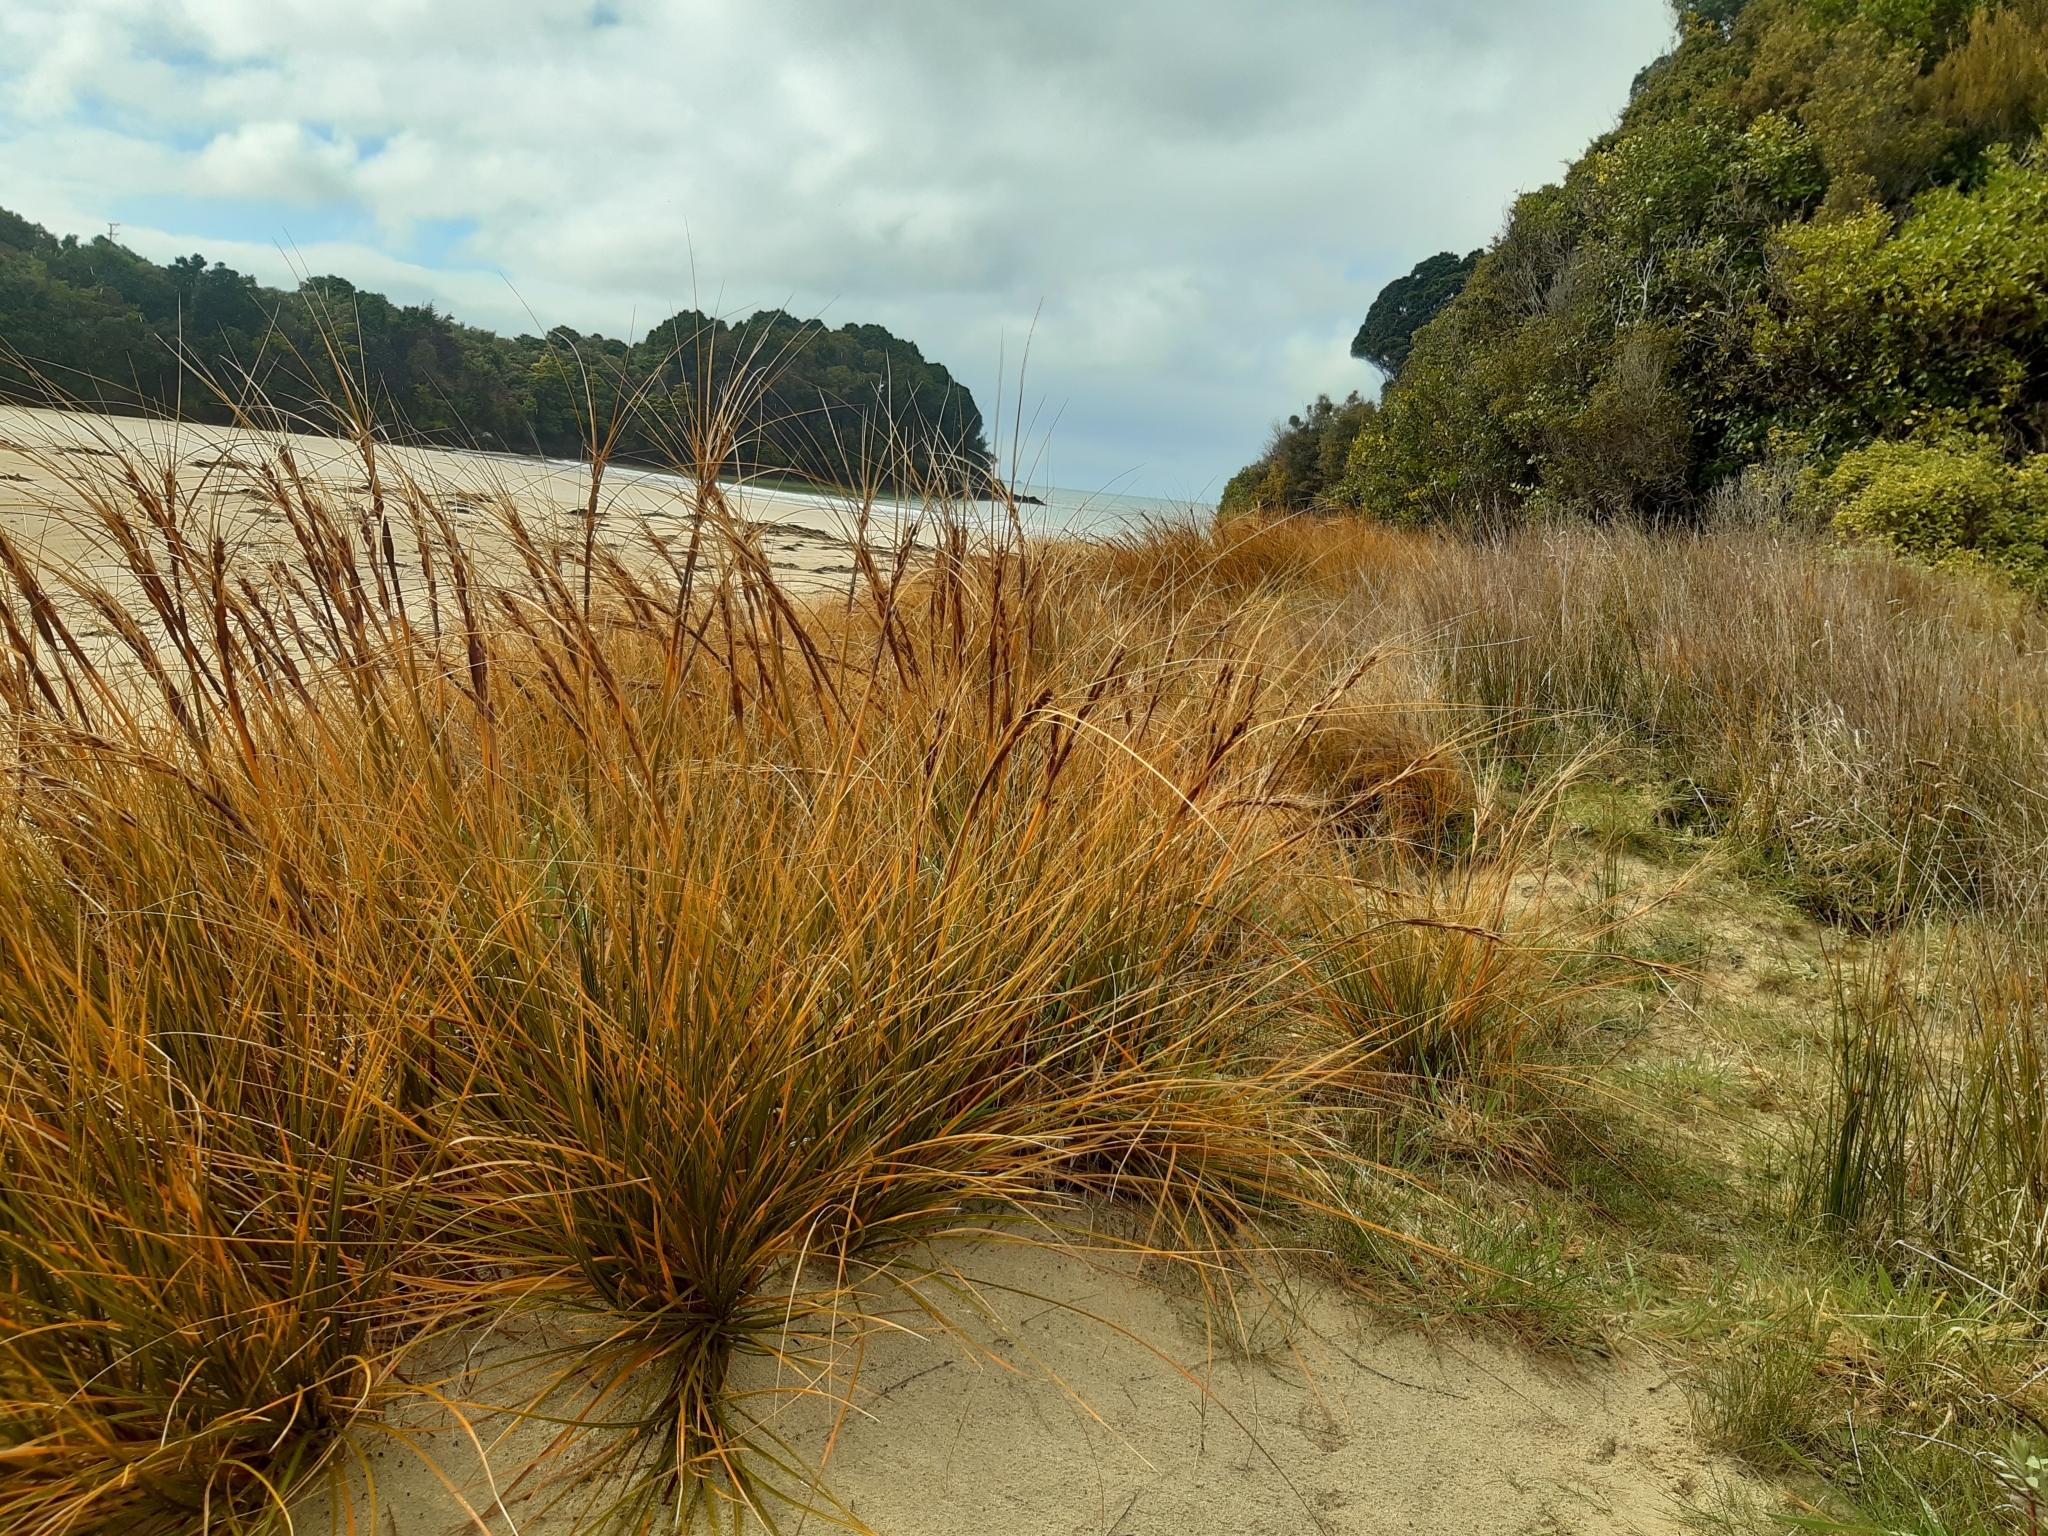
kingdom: Plantae
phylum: Tracheophyta
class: Liliopsida
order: Poales
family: Cyperaceae
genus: Ficinia
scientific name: Ficinia spiralis
